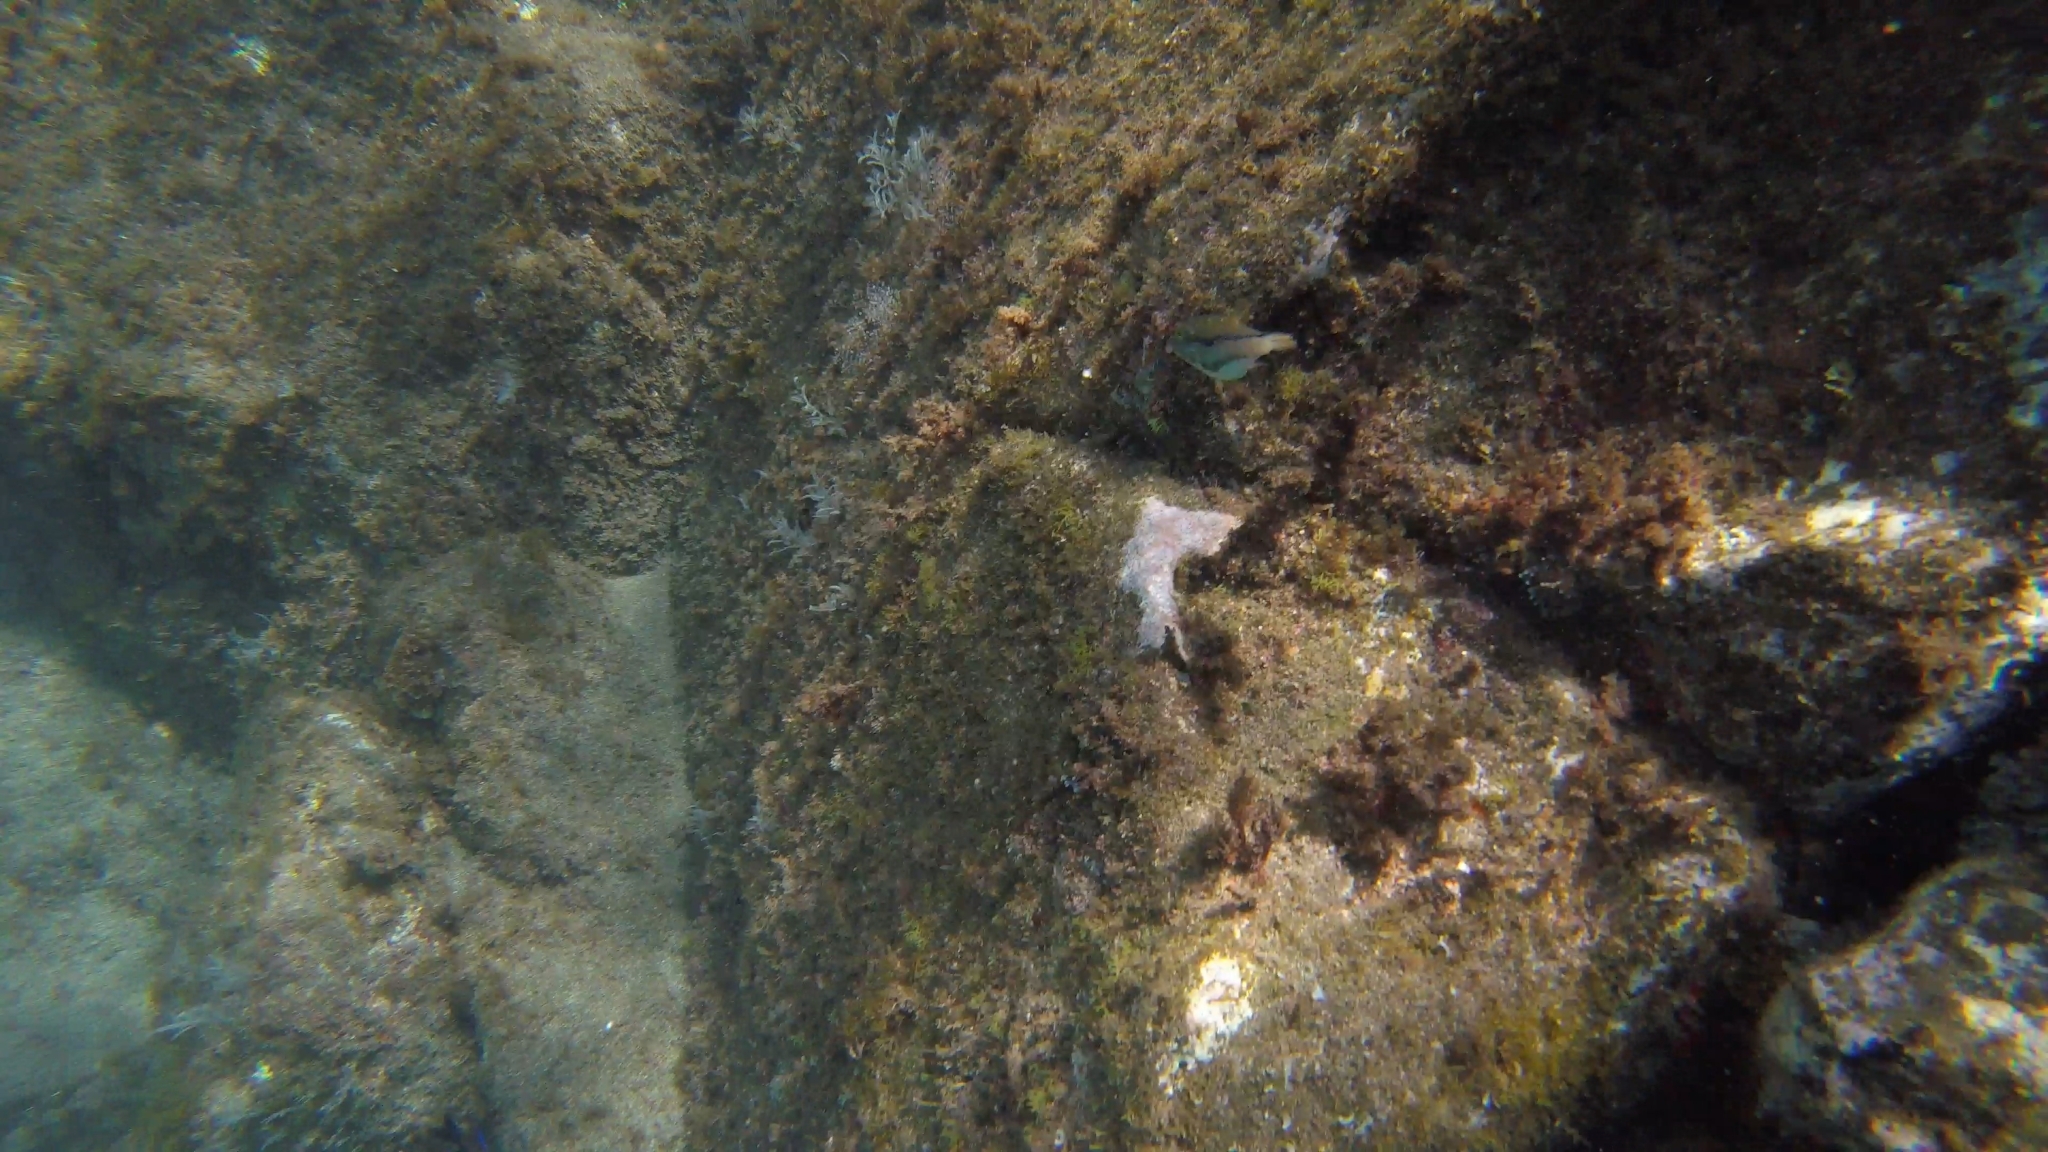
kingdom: Animalia
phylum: Chordata
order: Tetraodontiformes
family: Tetraodontidae
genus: Canthigaster
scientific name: Canthigaster capistrata
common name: Macaronesian sharpnose-puffer
